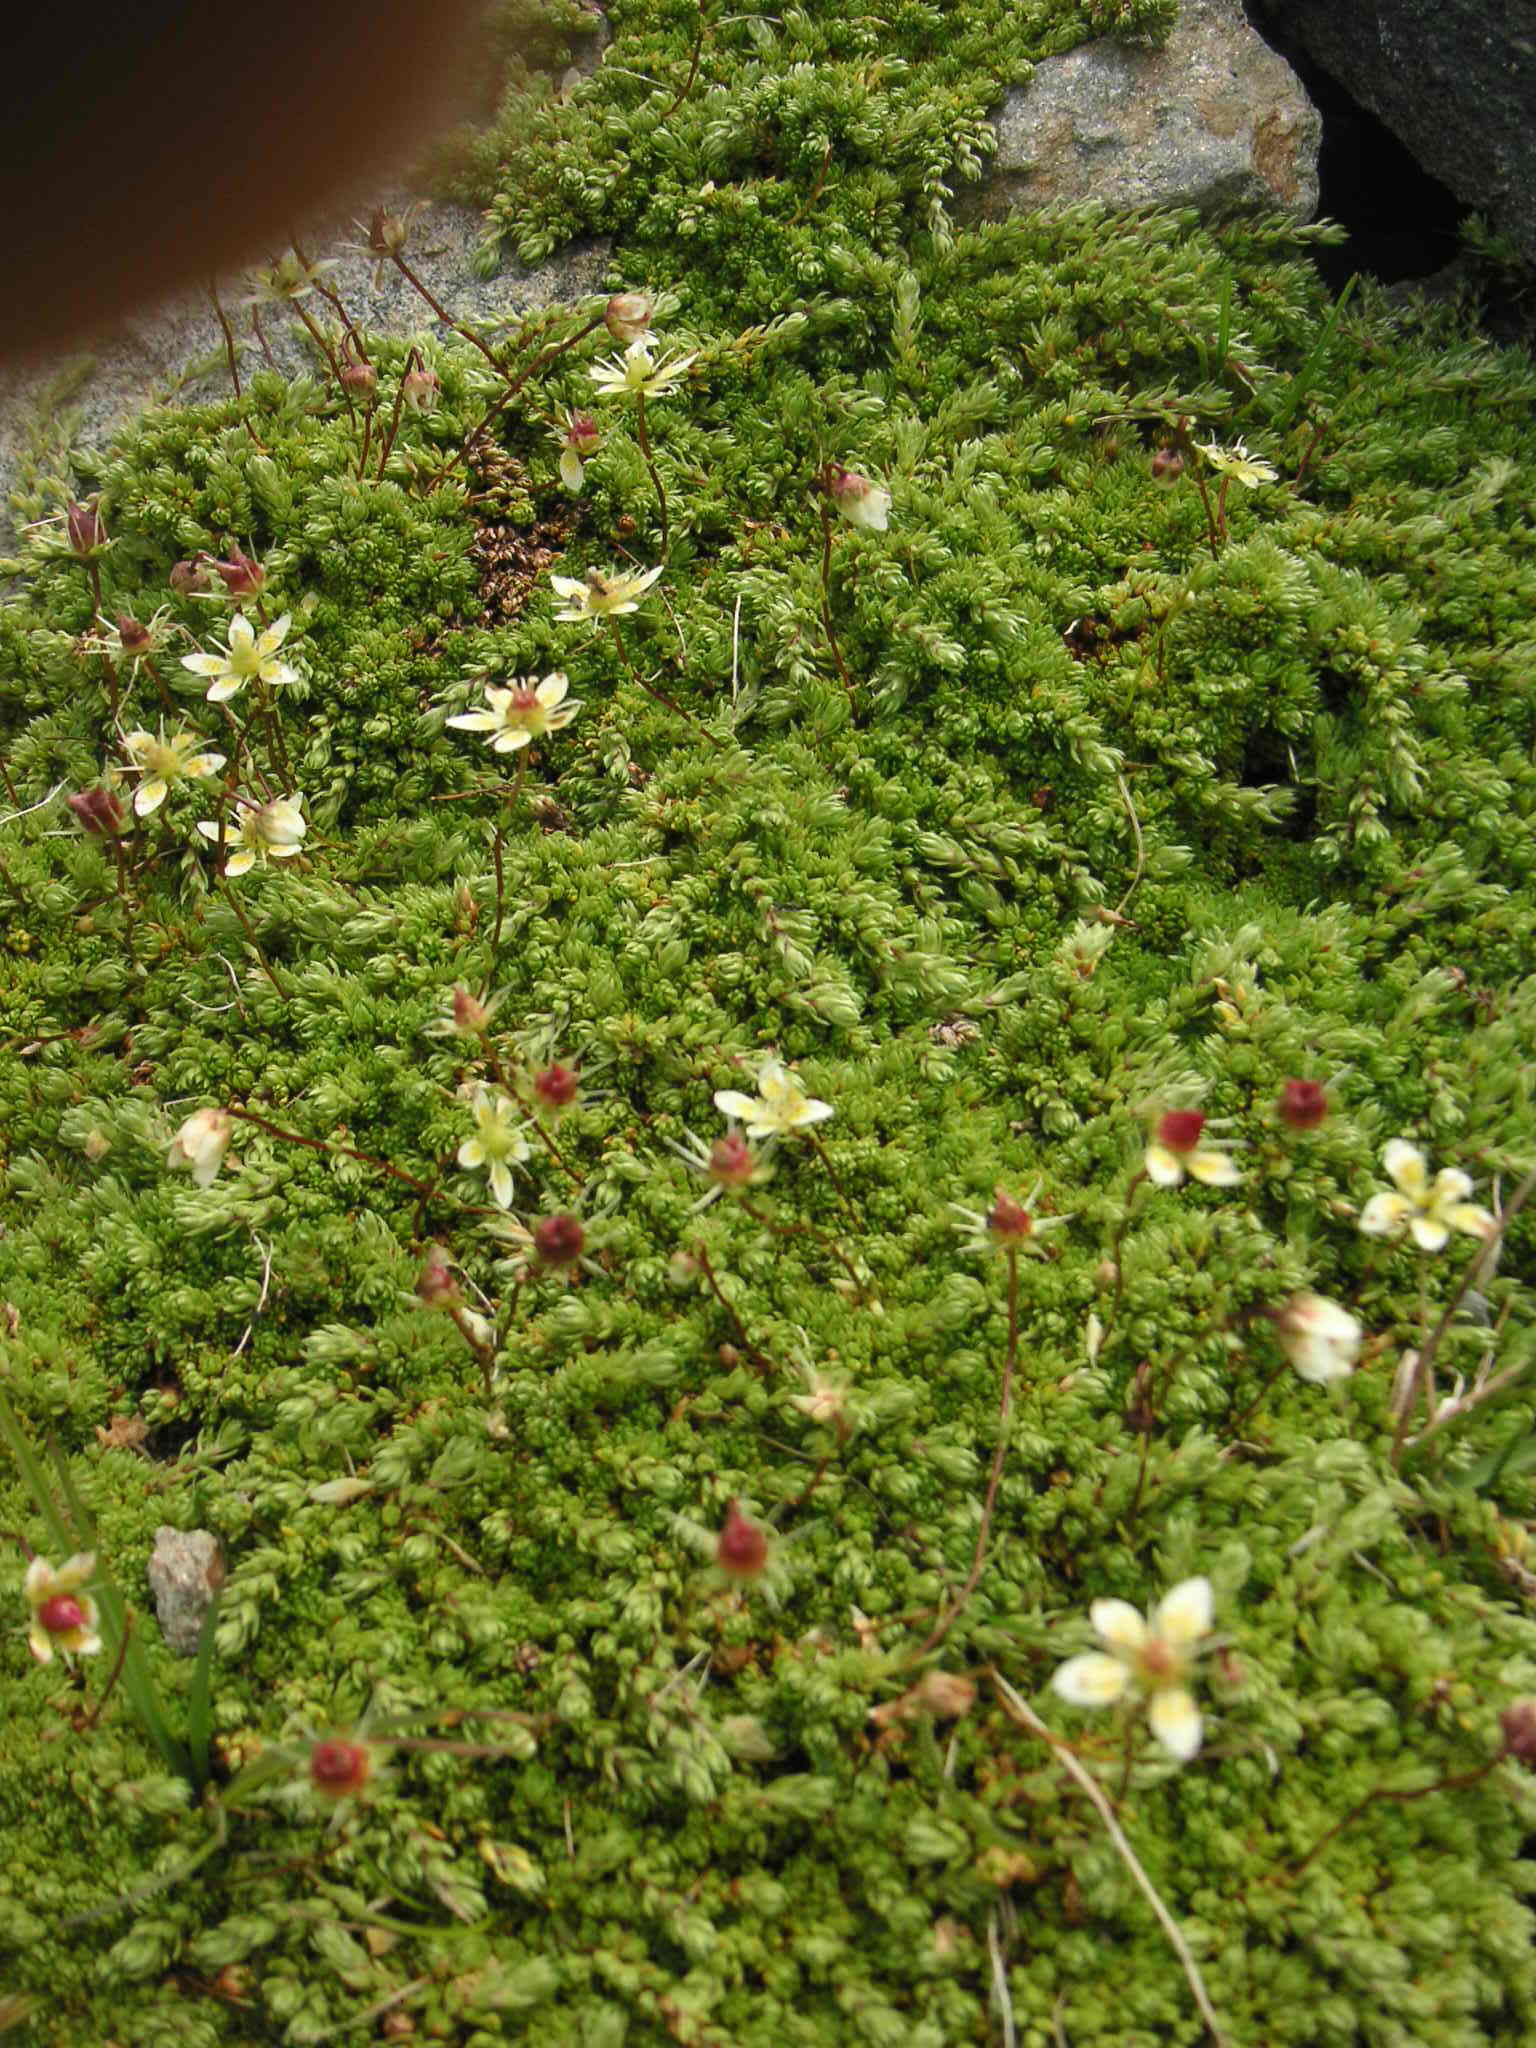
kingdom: Plantae
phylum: Tracheophyta
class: Magnoliopsida
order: Saxifragales
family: Saxifragaceae
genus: Saxifraga
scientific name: Saxifraga bryoides
